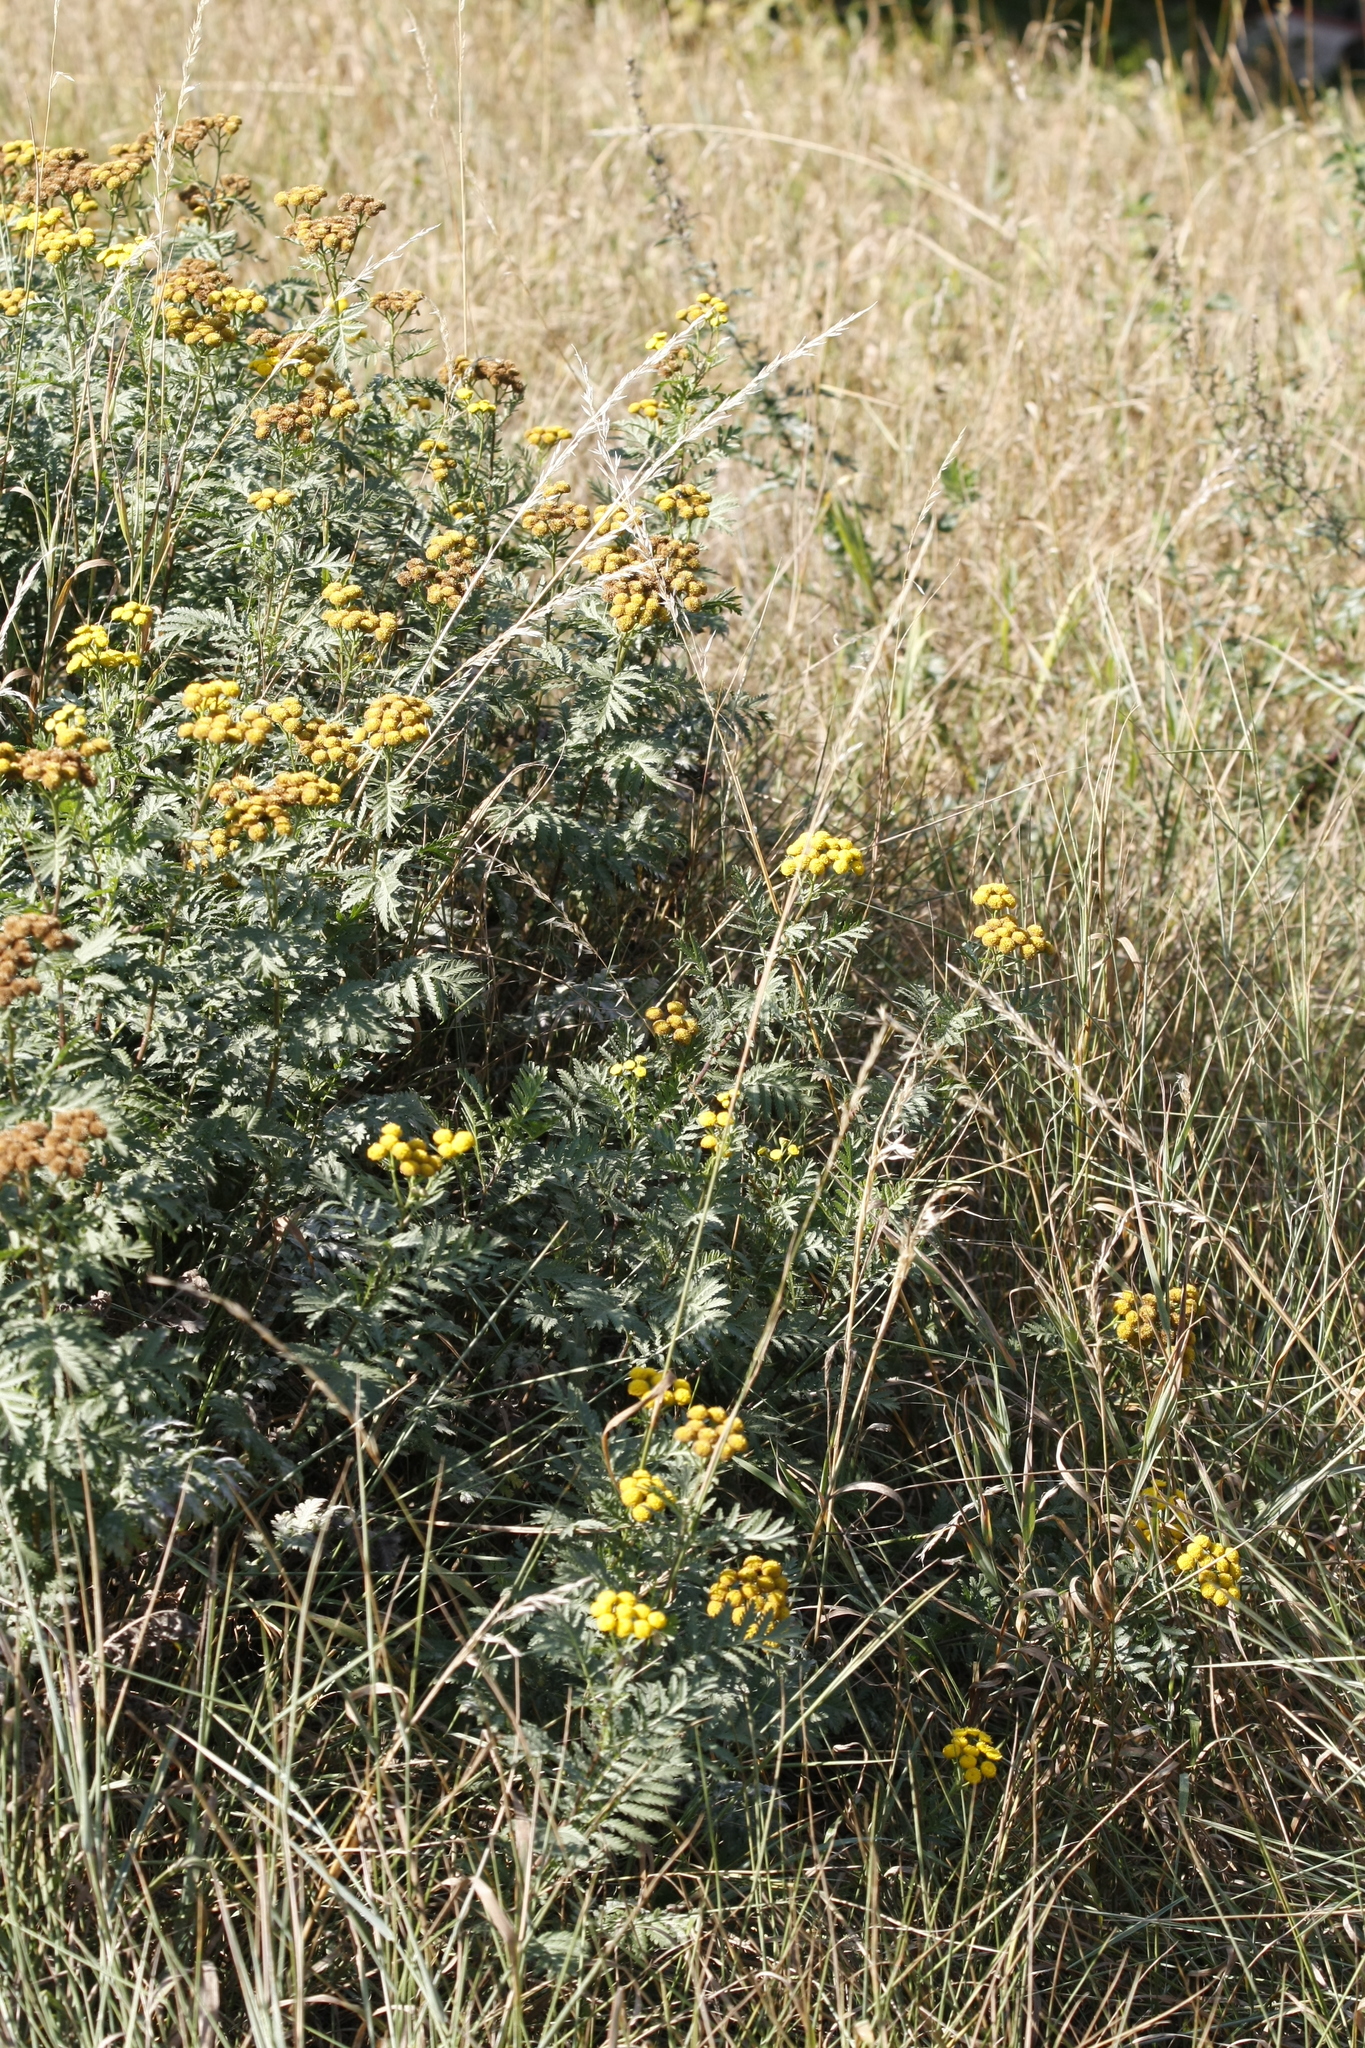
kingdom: Plantae
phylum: Tracheophyta
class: Magnoliopsida
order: Asterales
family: Asteraceae
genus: Tanacetum
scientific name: Tanacetum vulgare
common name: Common tansy
